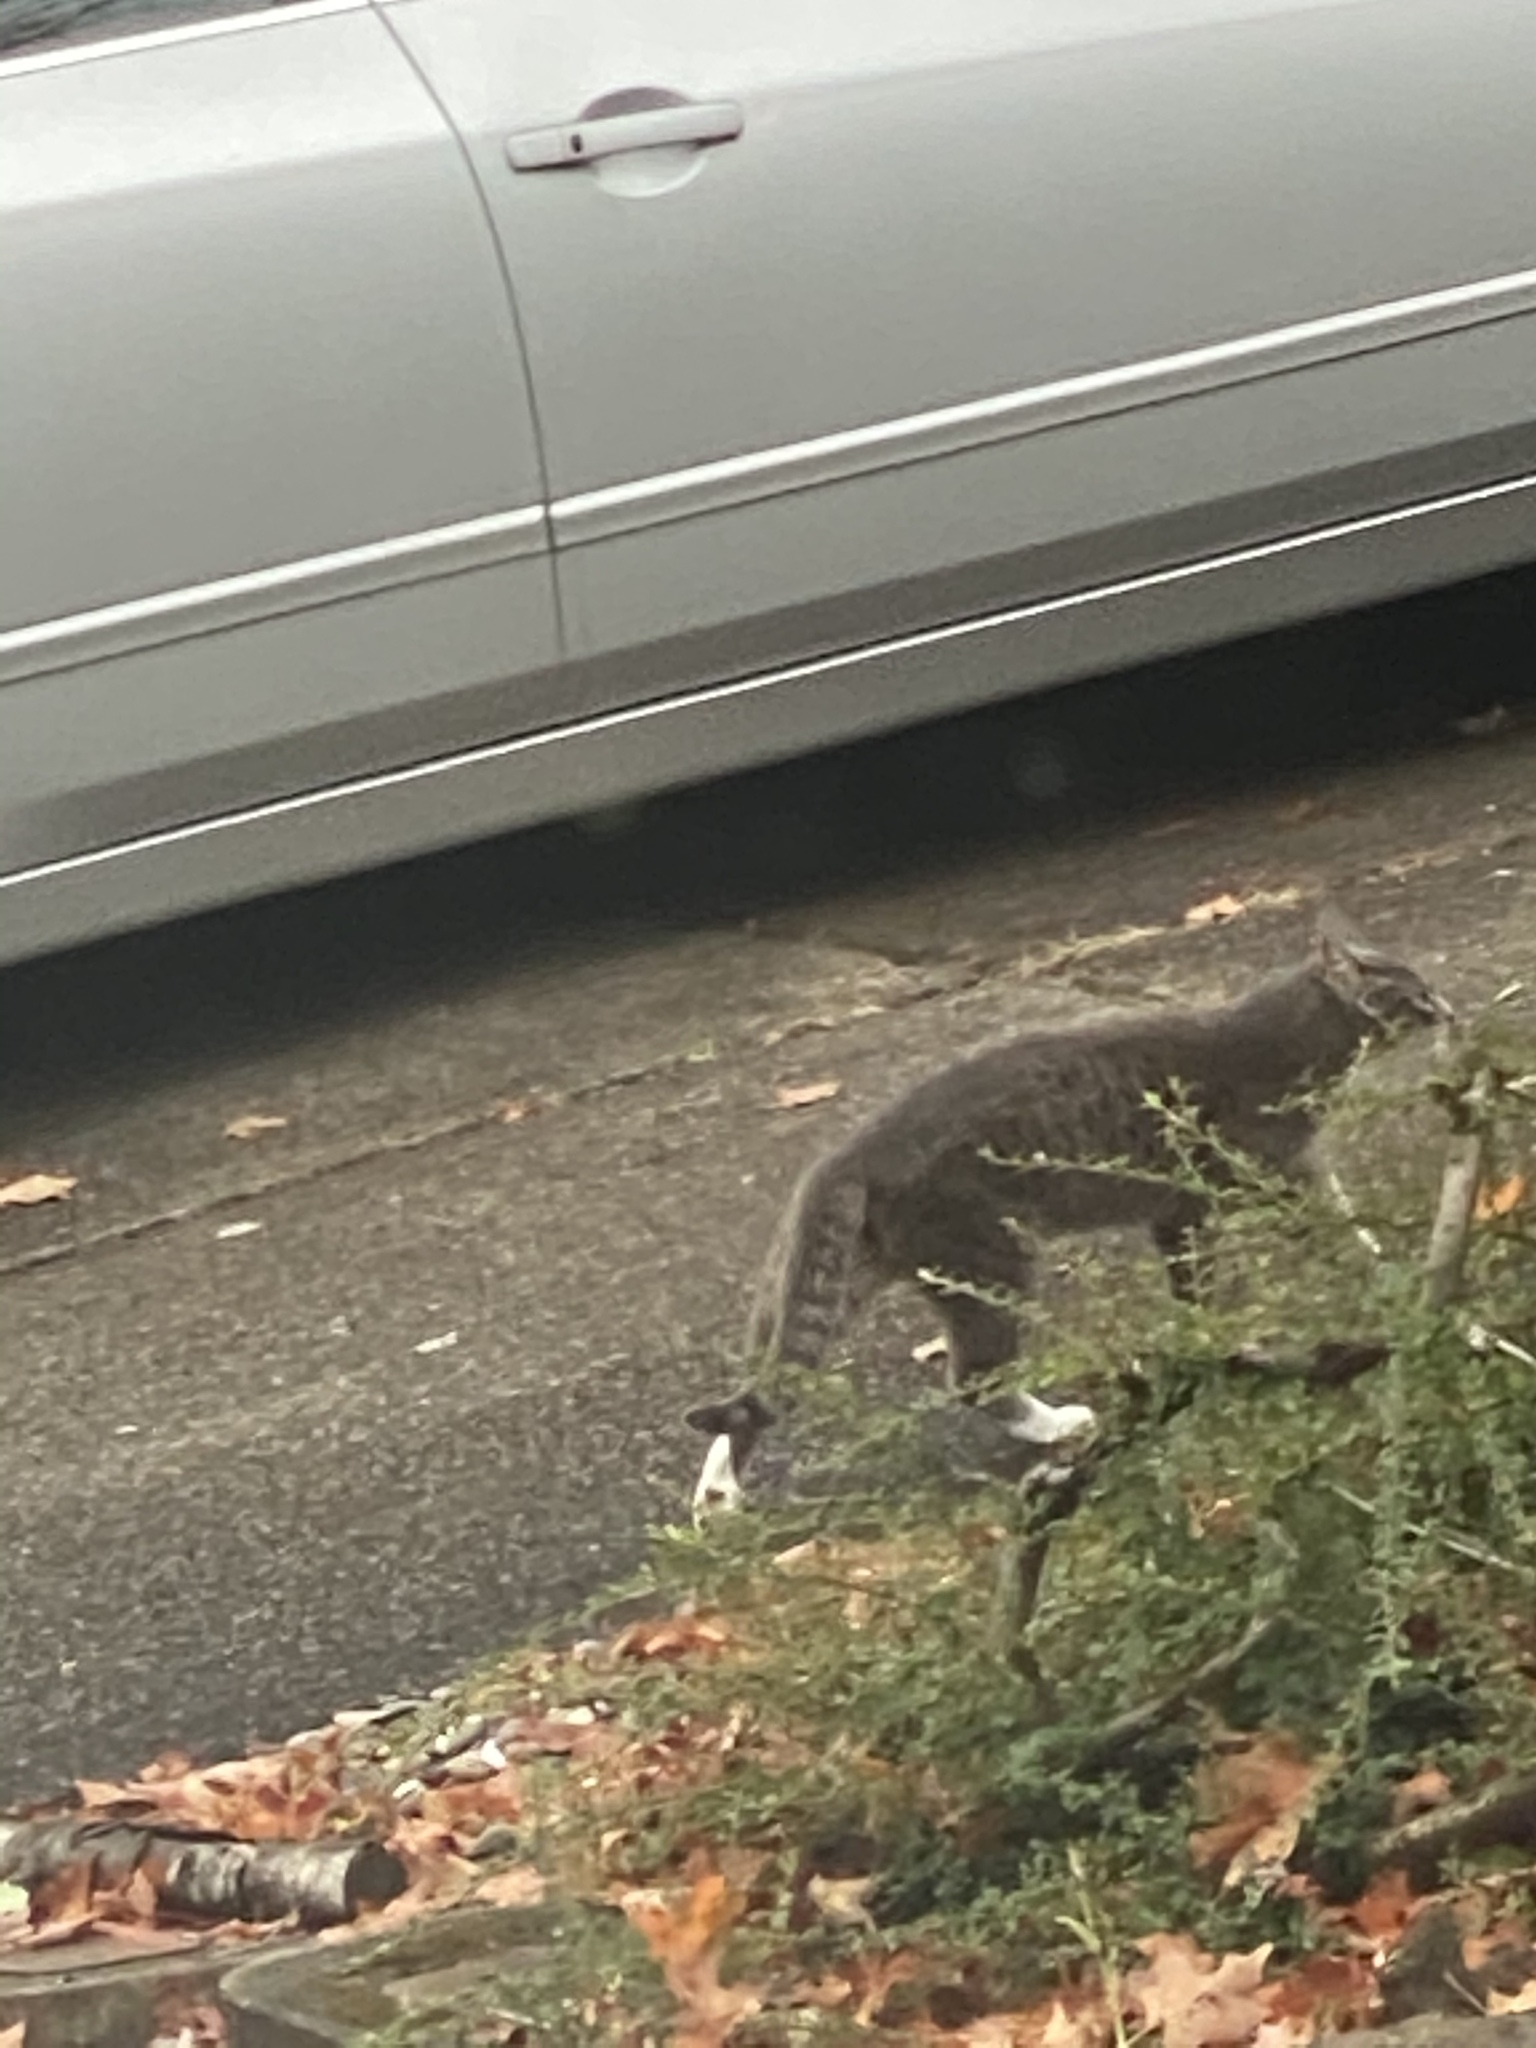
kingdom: Animalia
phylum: Chordata
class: Mammalia
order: Carnivora
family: Felidae
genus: Felis
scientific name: Felis catus
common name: Domestic cat
